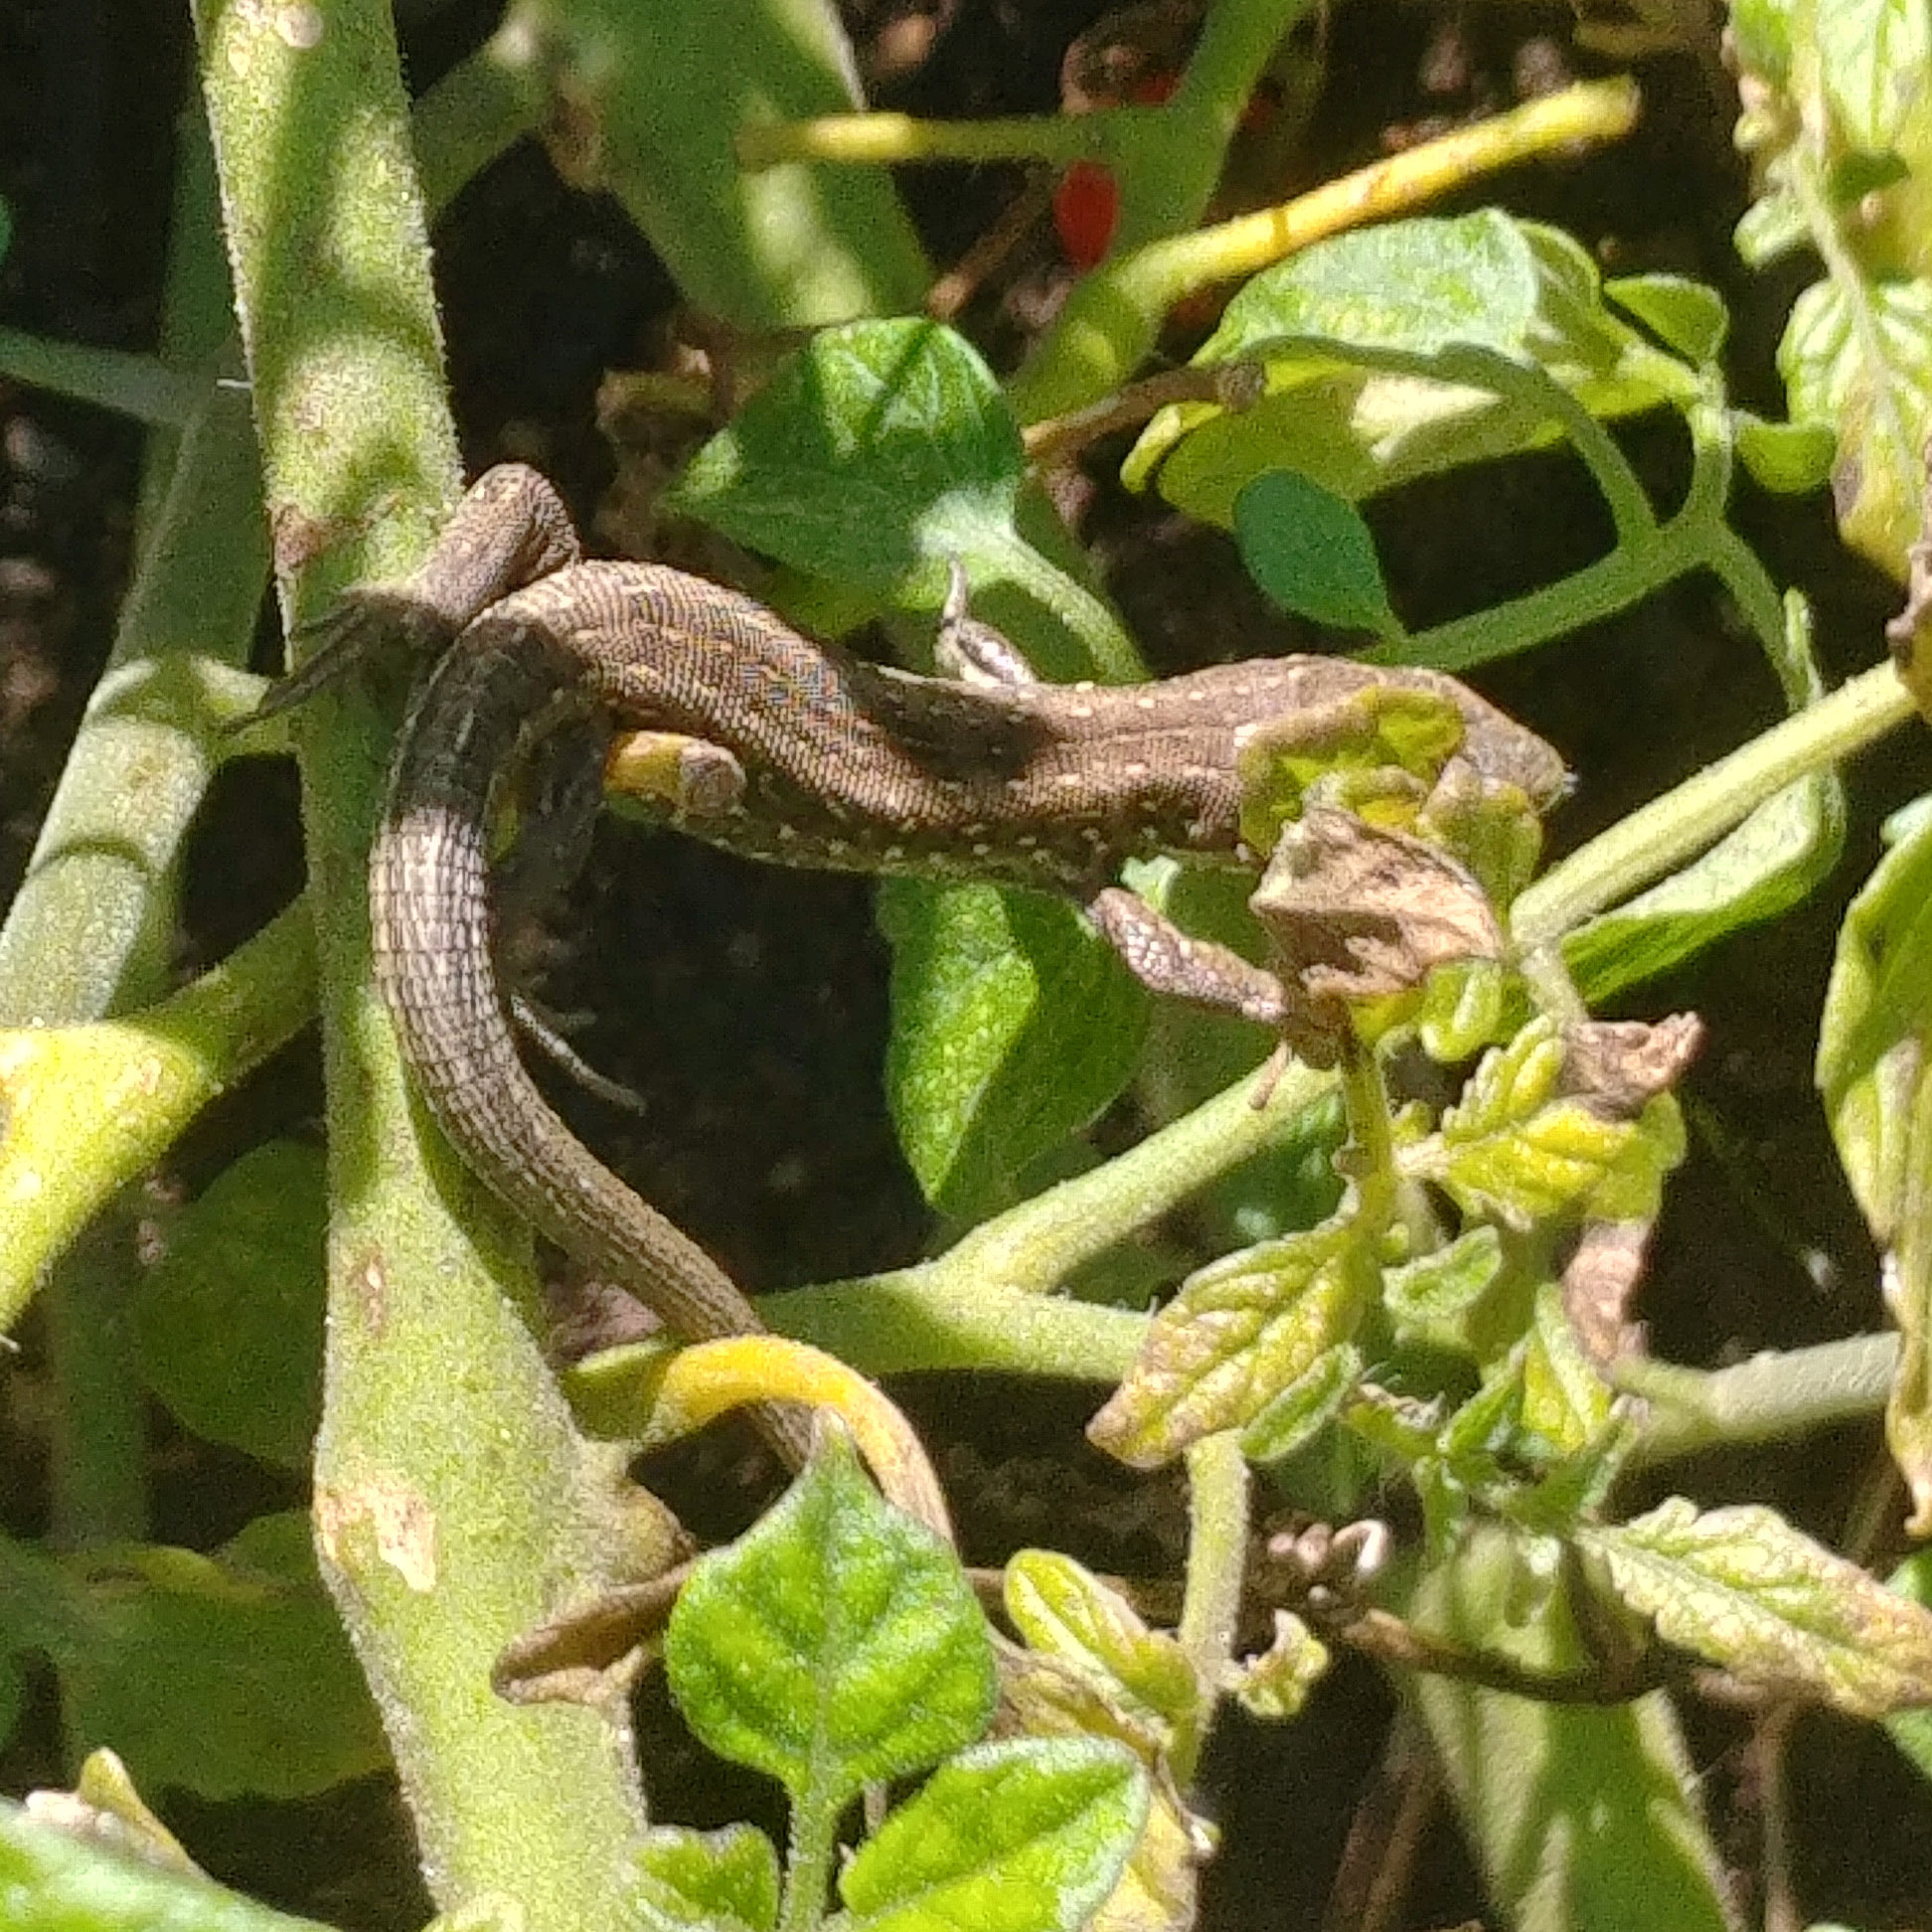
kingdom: Animalia
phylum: Chordata
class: Squamata
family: Lacertidae
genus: Lacerta
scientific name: Lacerta agilis
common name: Sand lizard
